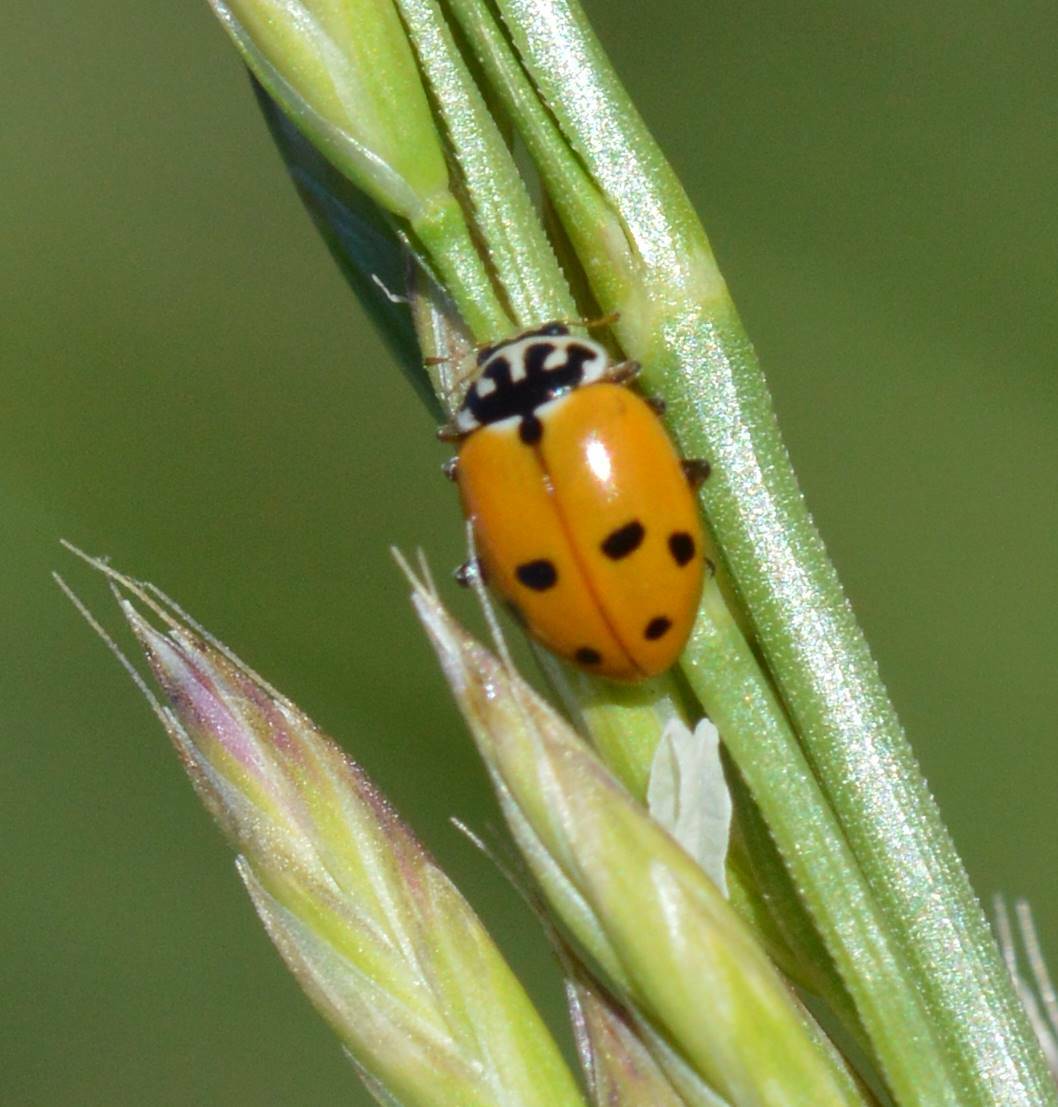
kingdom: Animalia
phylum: Arthropoda
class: Insecta
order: Coleoptera
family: Coccinellidae
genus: Hippodamia
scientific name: Hippodamia variegata
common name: Ladybird beetle
